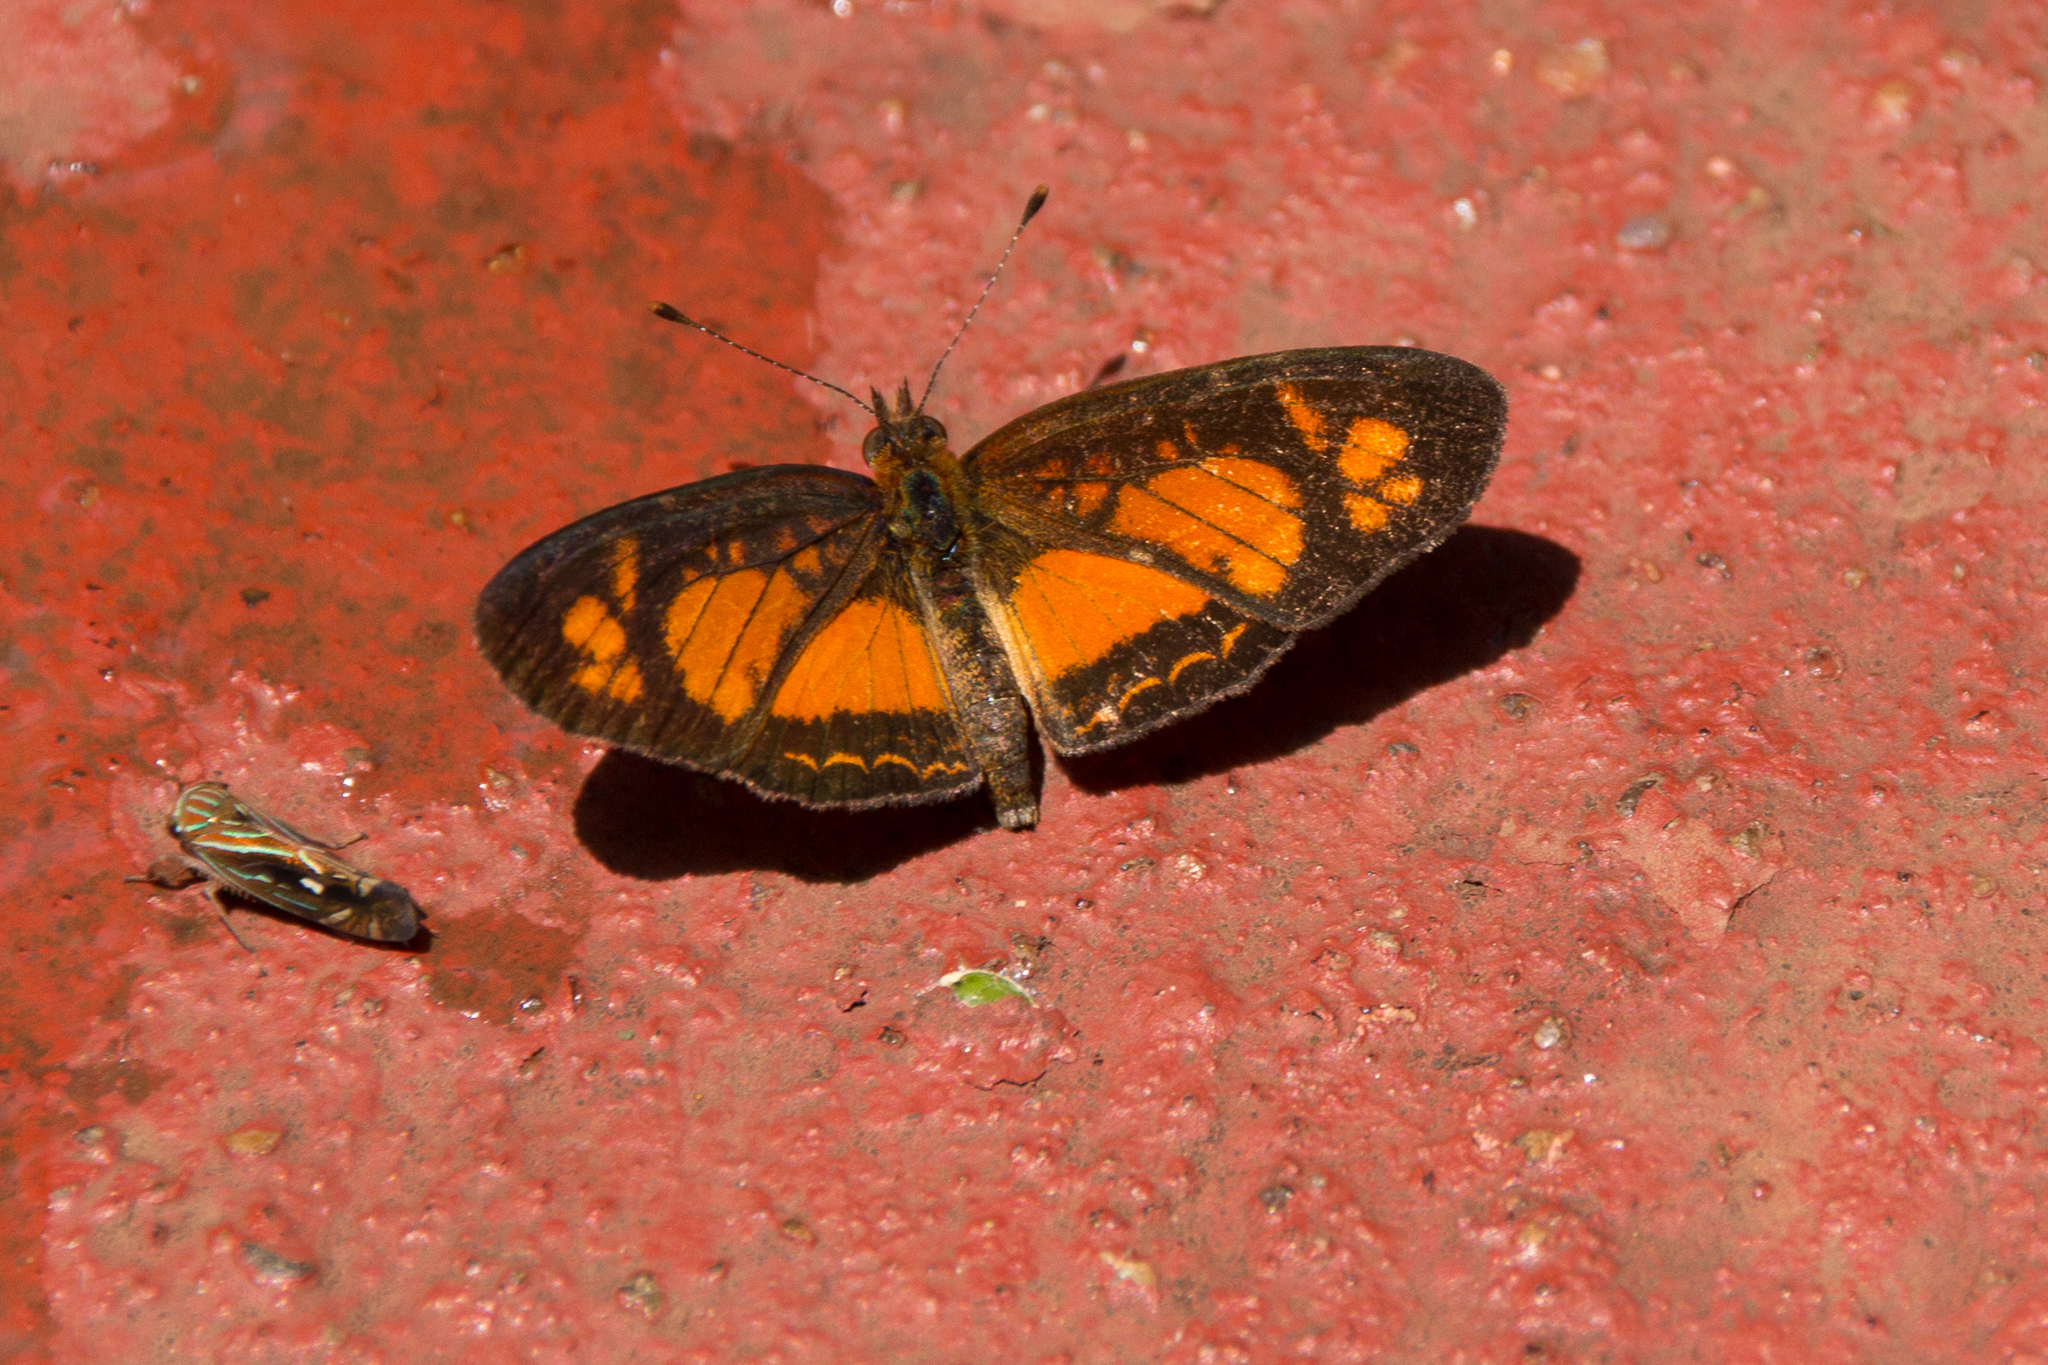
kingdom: Animalia
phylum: Arthropoda
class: Insecta
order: Lepidoptera
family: Nymphalidae
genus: Ortilia
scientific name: Ortilia dicoma
